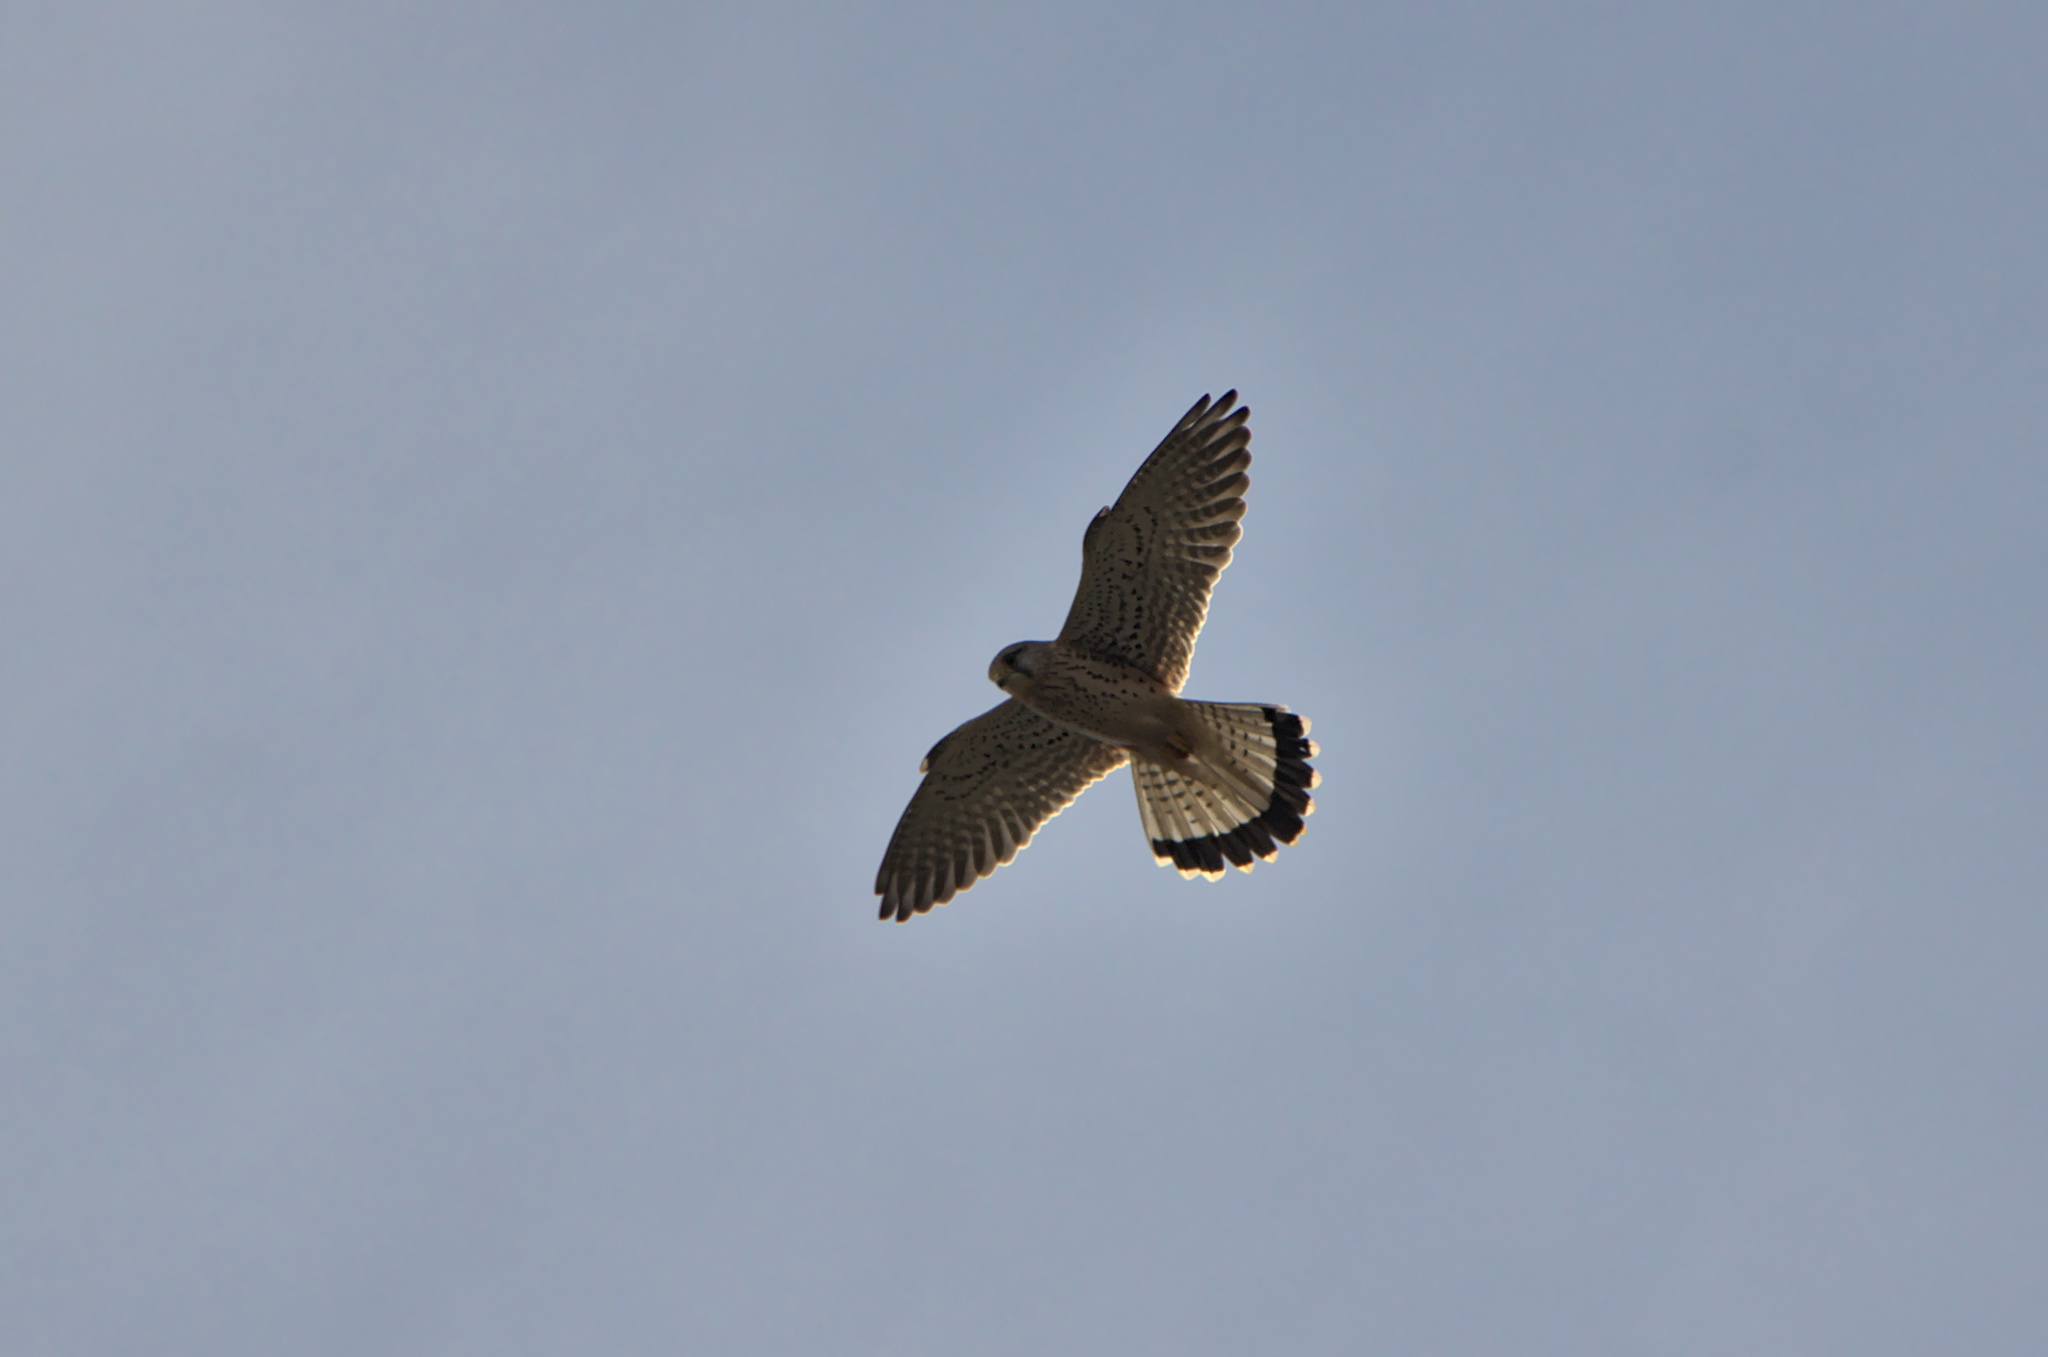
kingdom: Animalia
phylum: Chordata
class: Aves
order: Falconiformes
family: Falconidae
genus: Falco
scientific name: Falco tinnunculus
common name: Common kestrel
